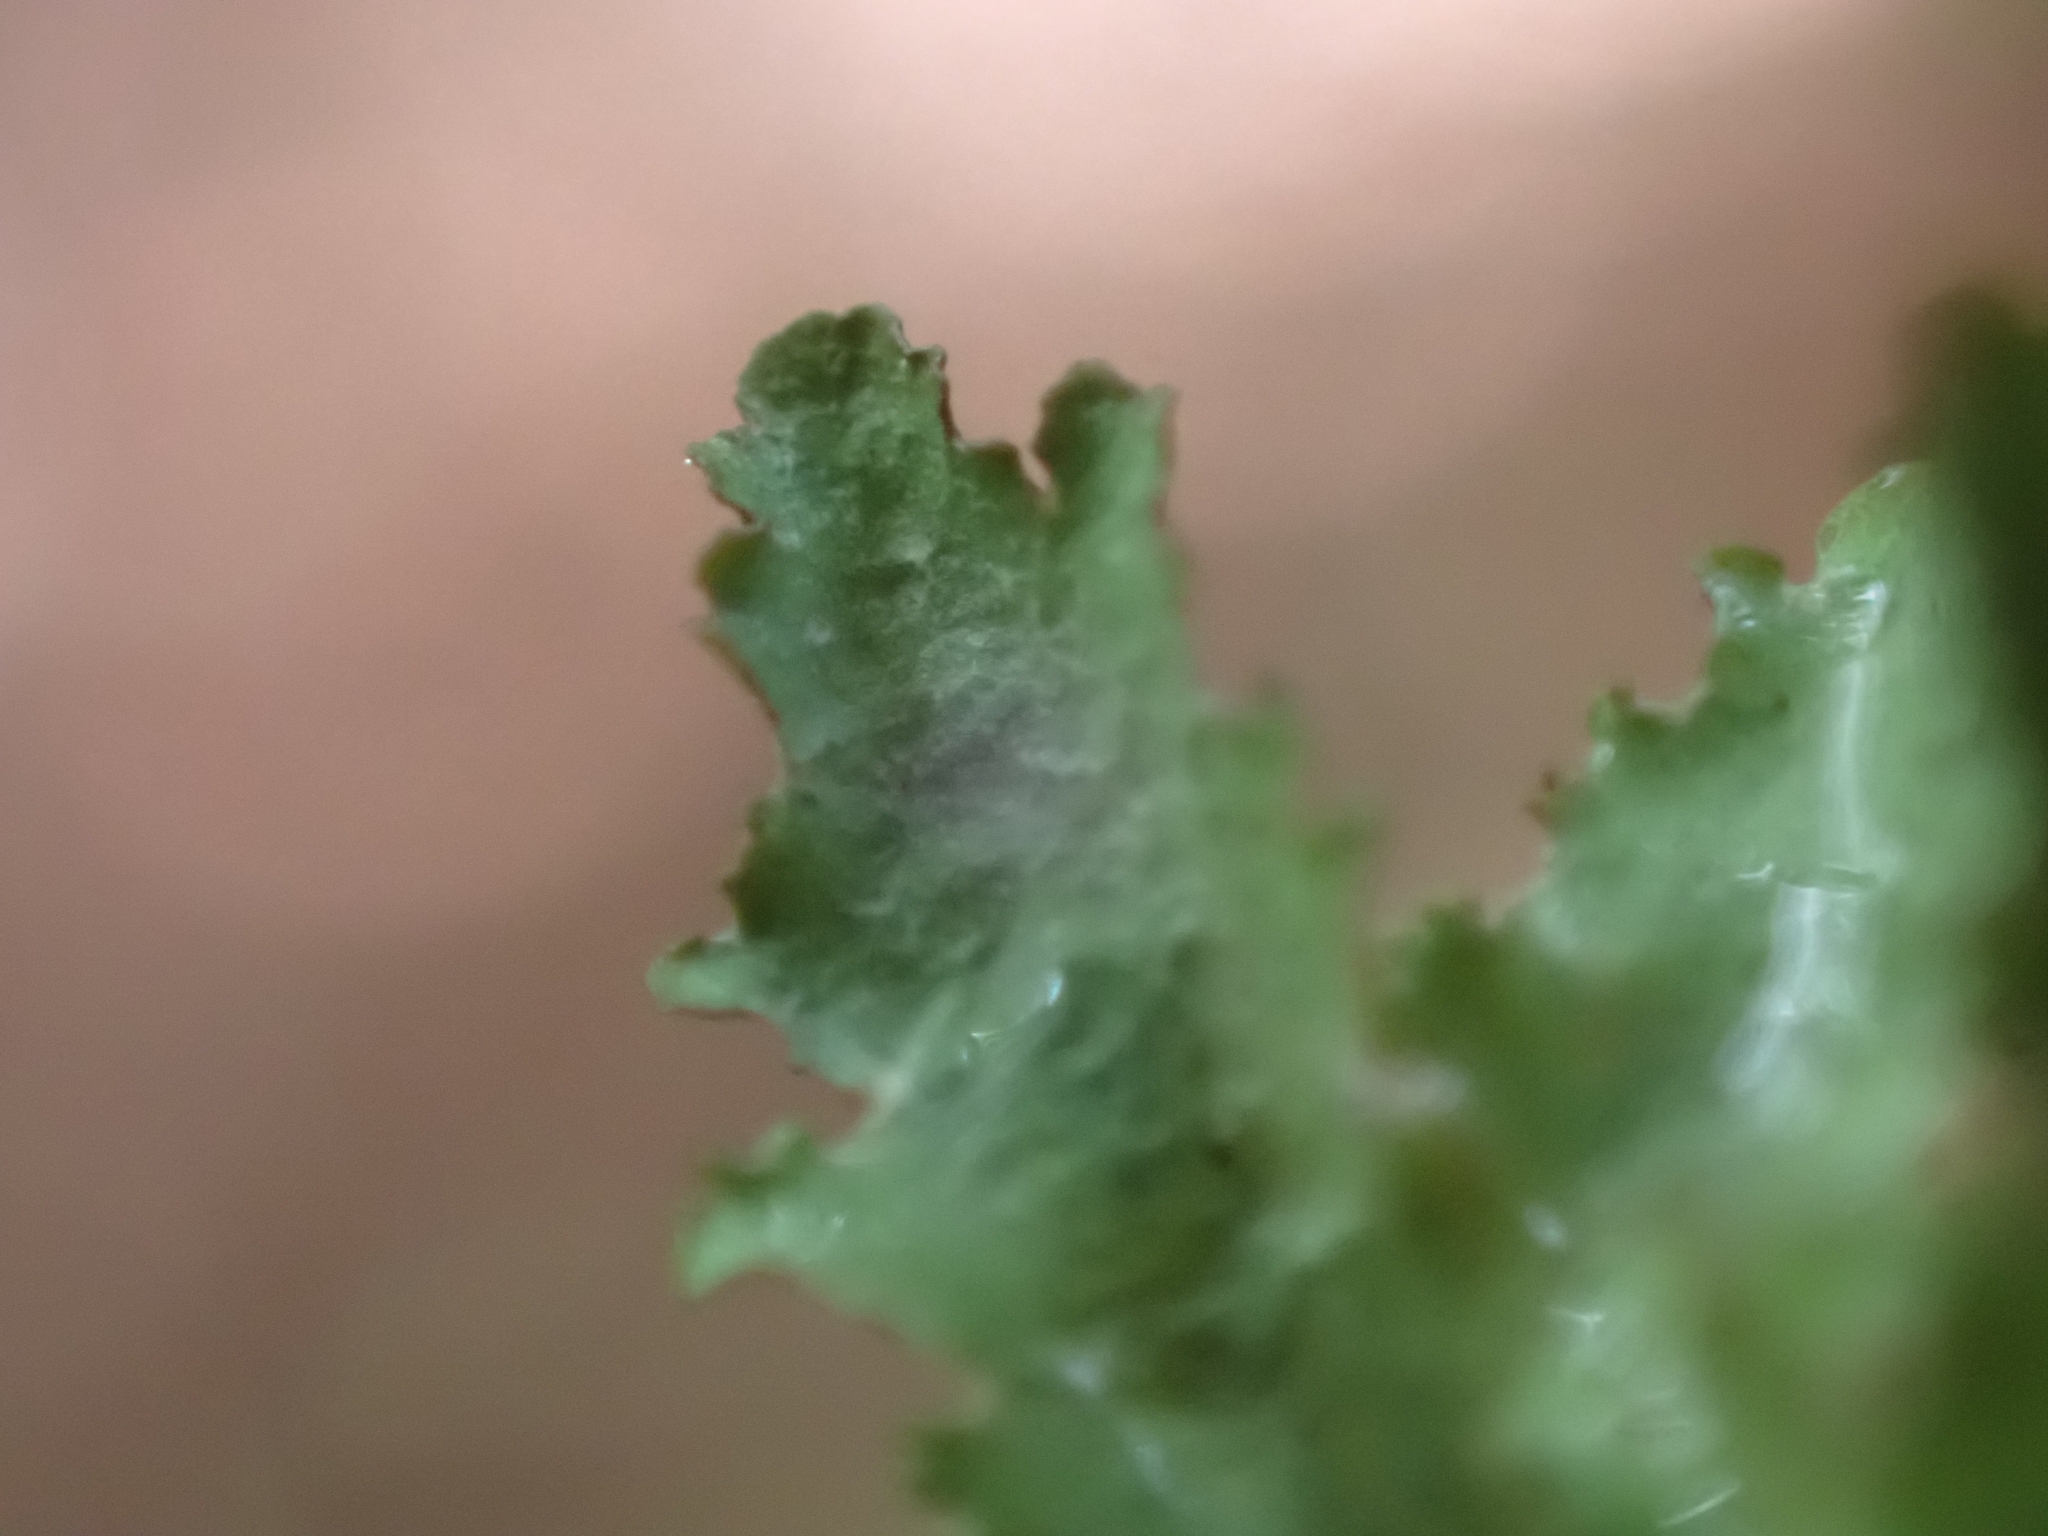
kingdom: Fungi
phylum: Ascomycota
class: Lecanoromycetes
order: Lecanorales
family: Parmeliaceae
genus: Platismatia
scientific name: Platismatia glauca
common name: Varied rag lichen
